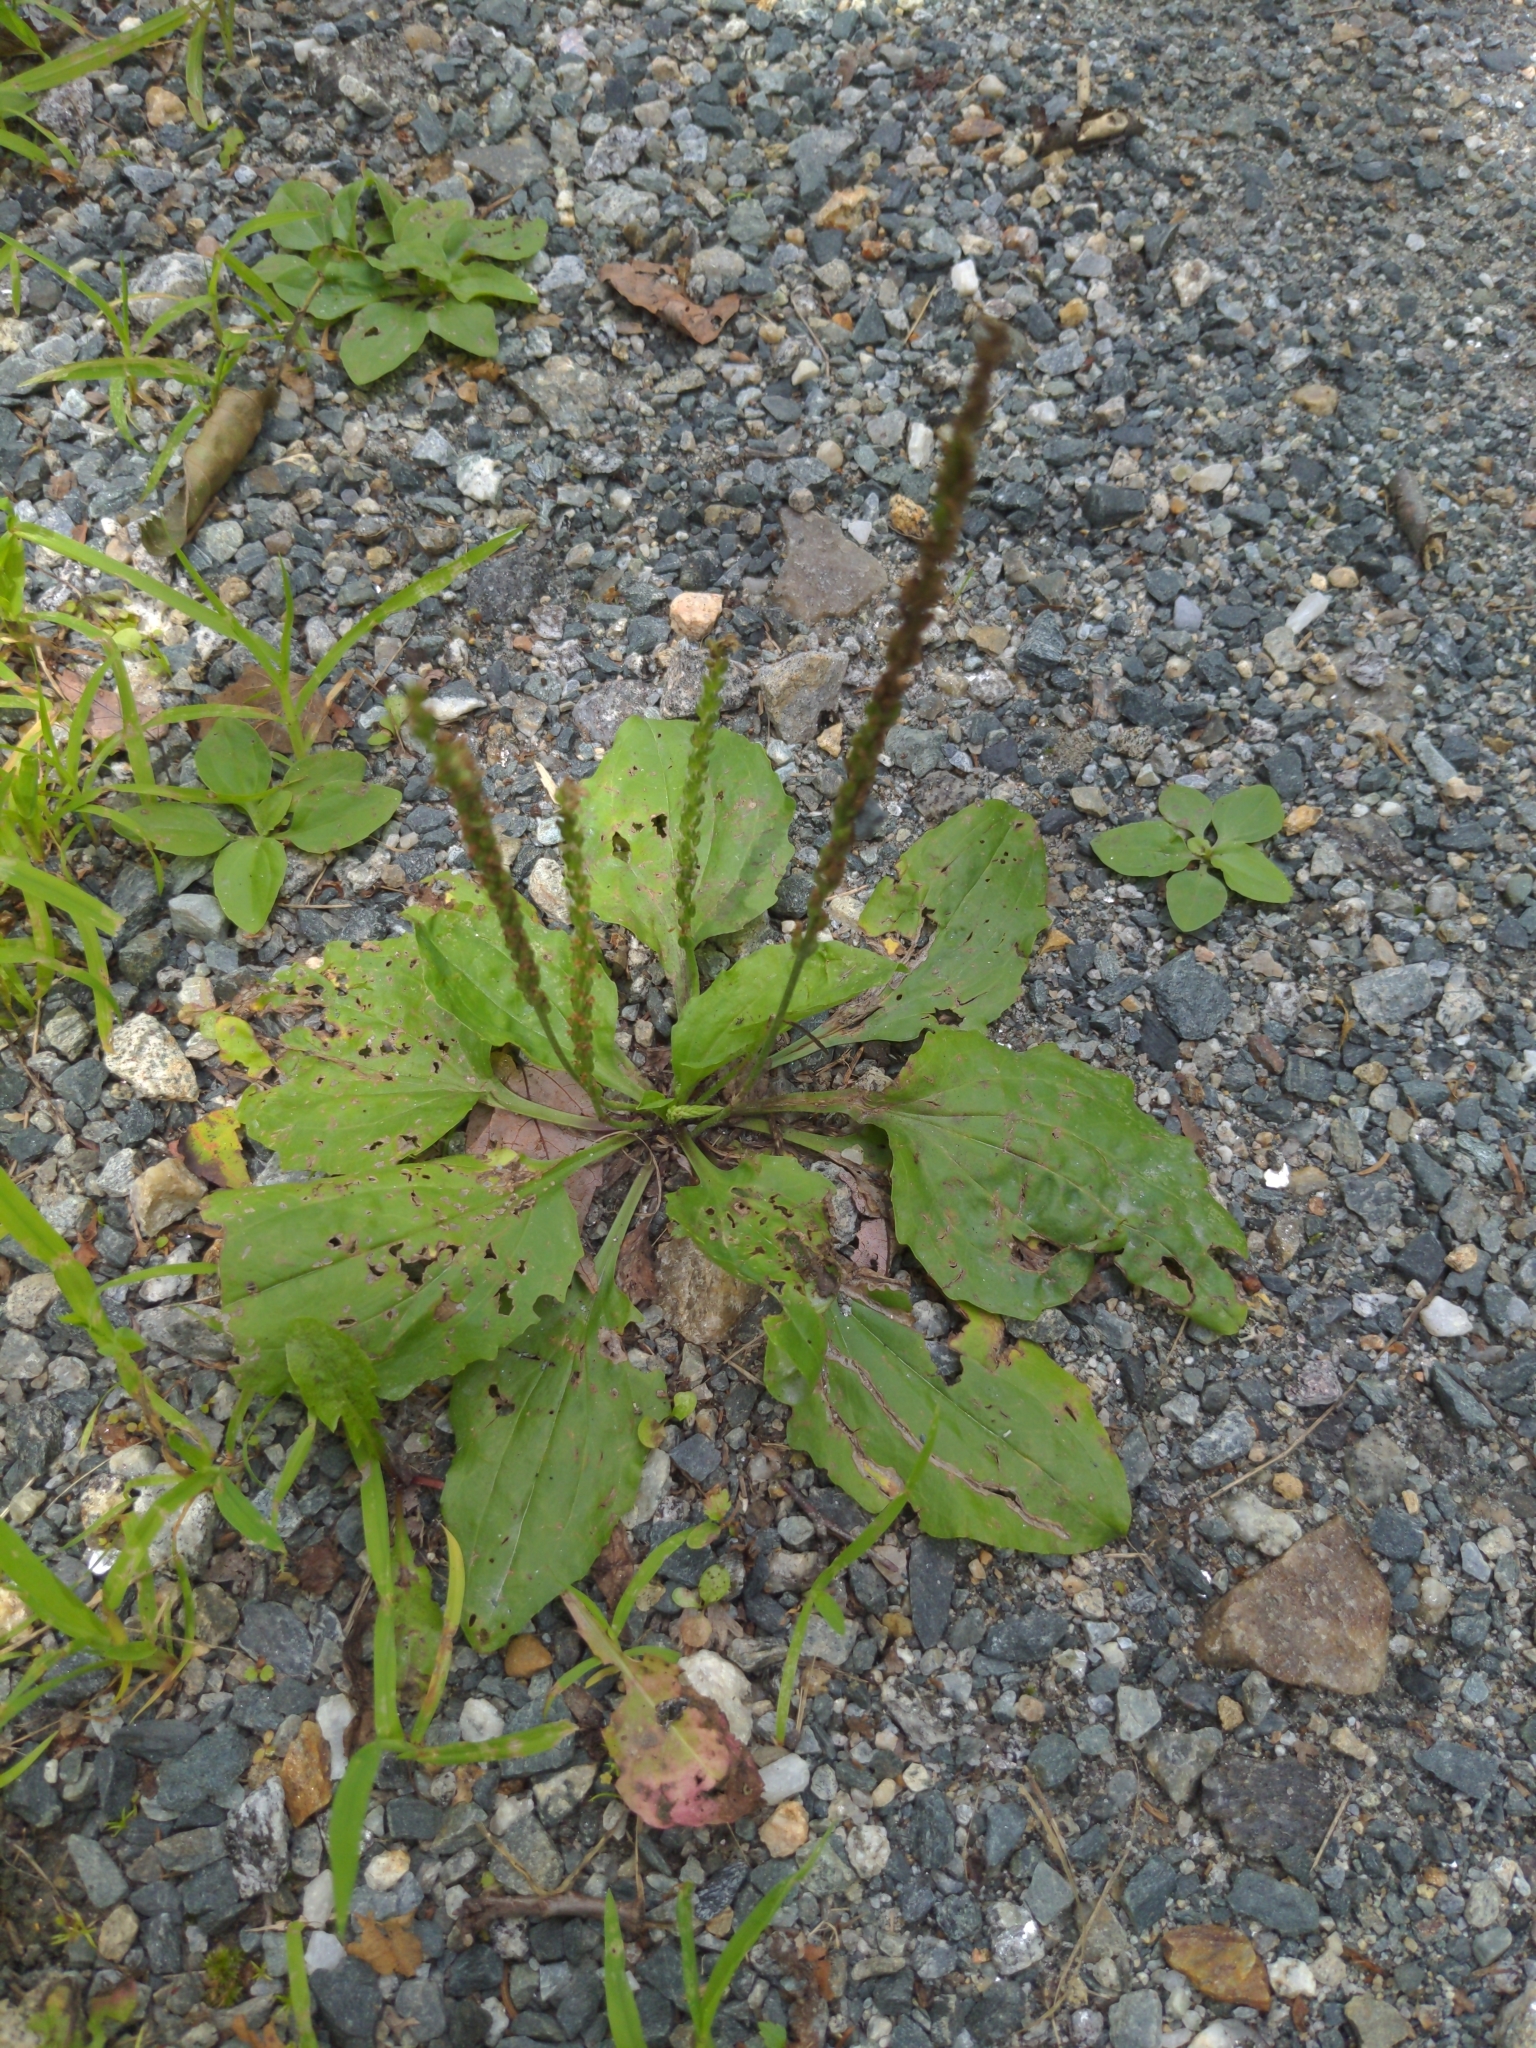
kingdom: Plantae
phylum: Tracheophyta
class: Magnoliopsida
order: Lamiales
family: Plantaginaceae
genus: Plantago
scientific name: Plantago rugelii
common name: American plantain
